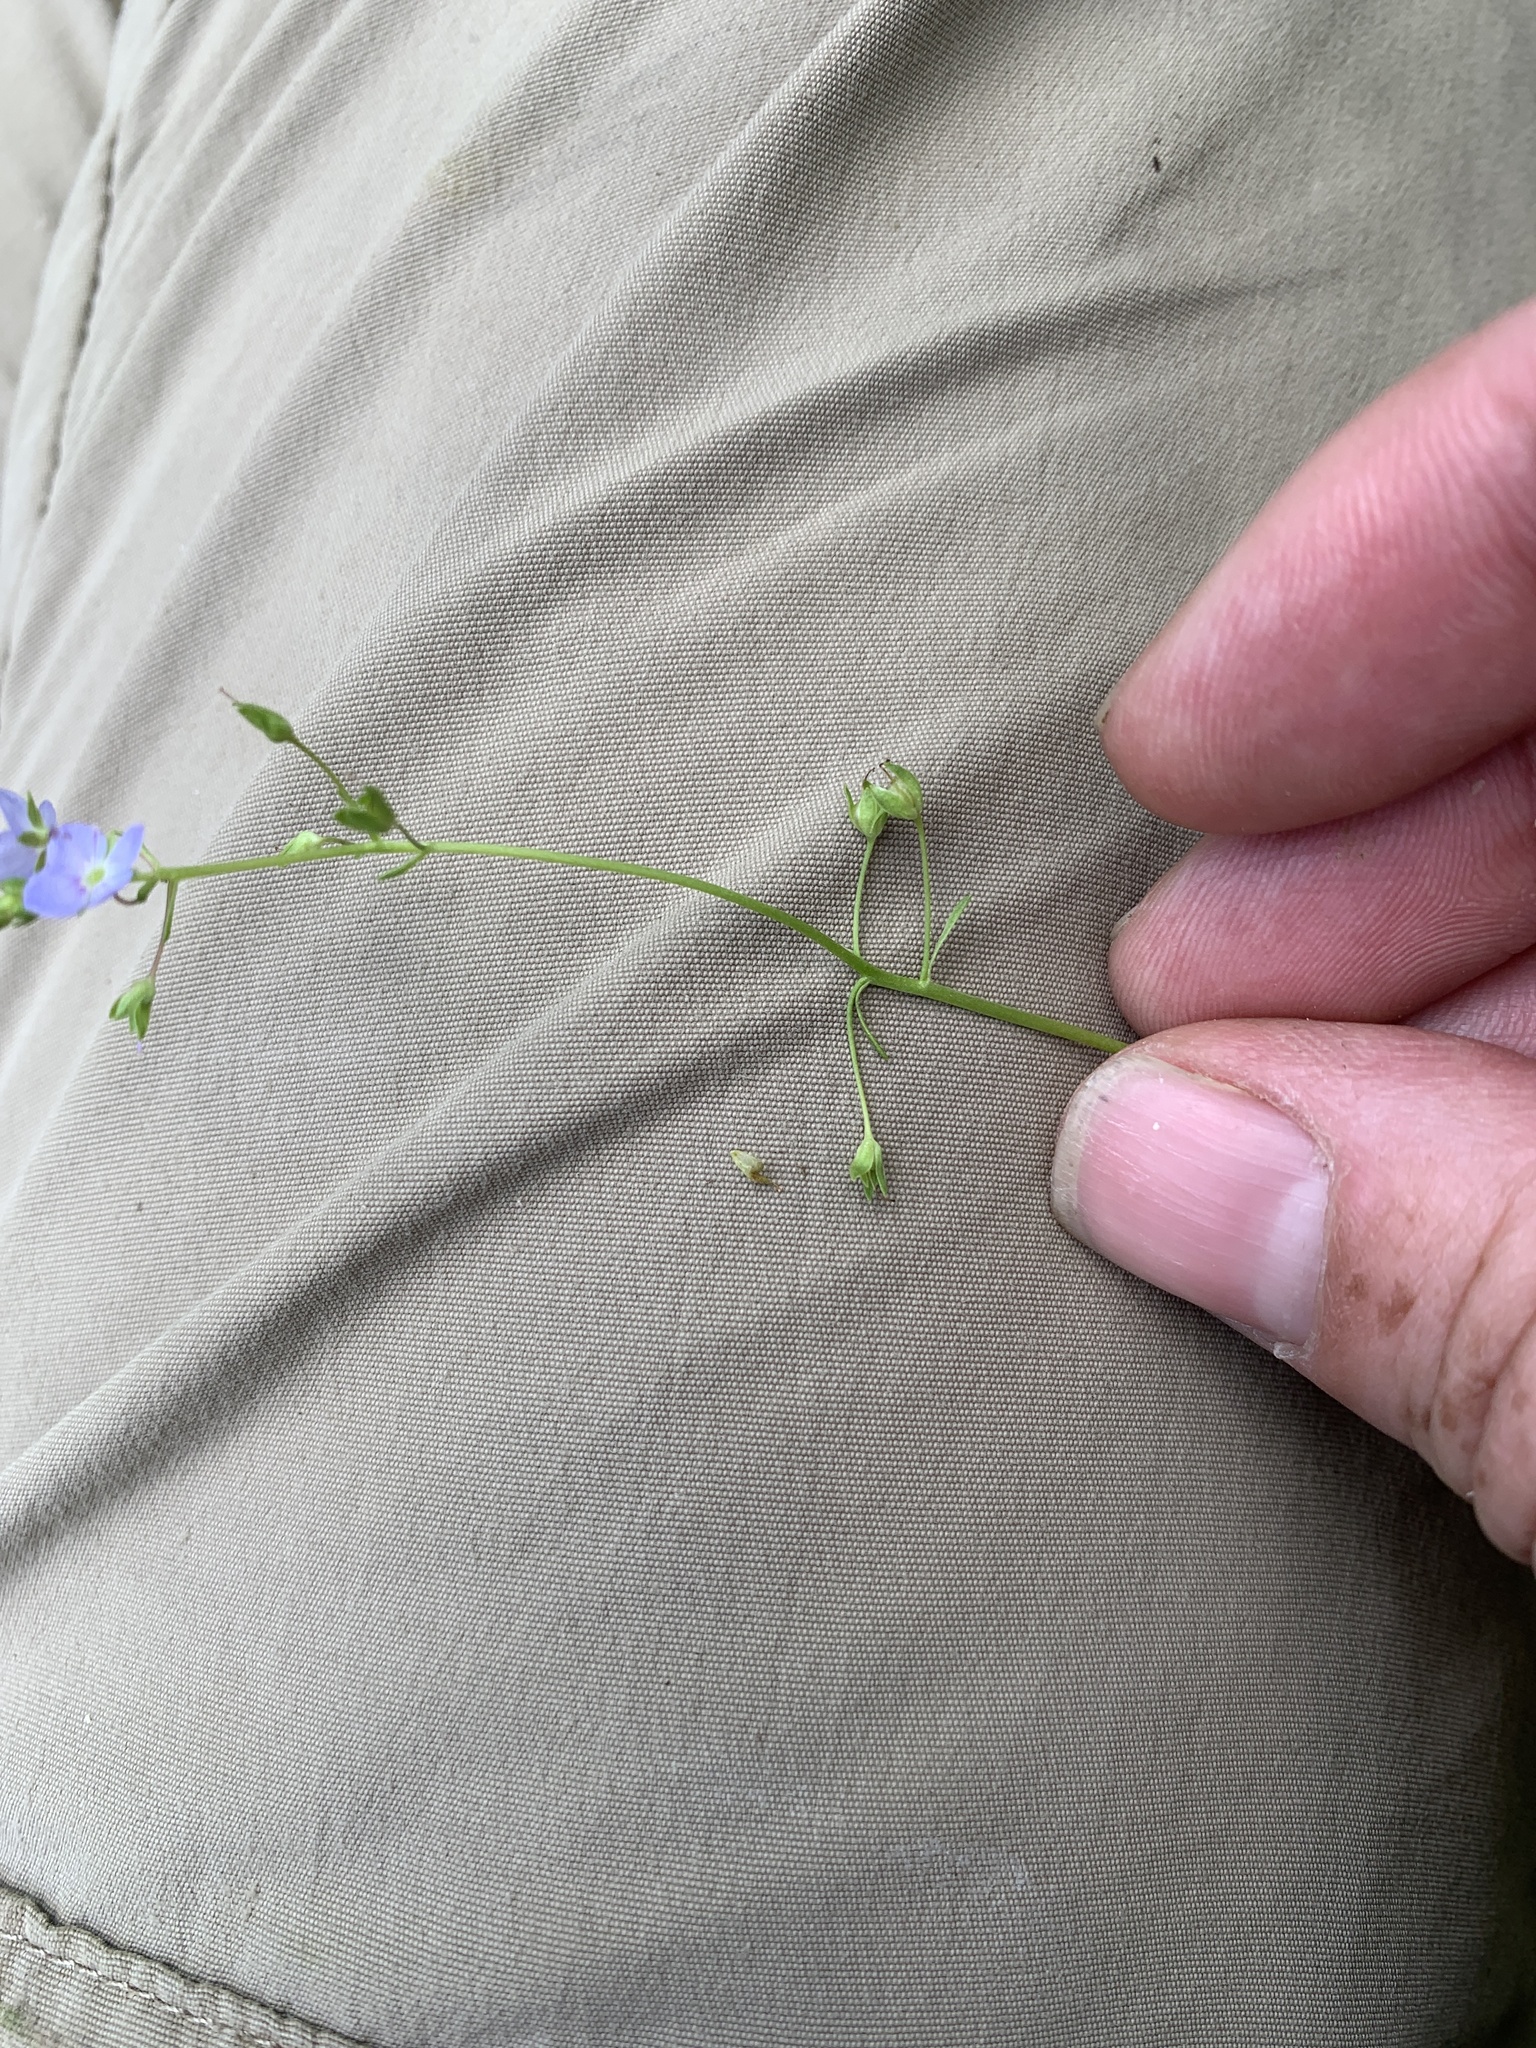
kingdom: Plantae
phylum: Tracheophyta
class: Magnoliopsida
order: Lamiales
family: Plantaginaceae
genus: Veronica
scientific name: Veronica americana
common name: American brooklime
